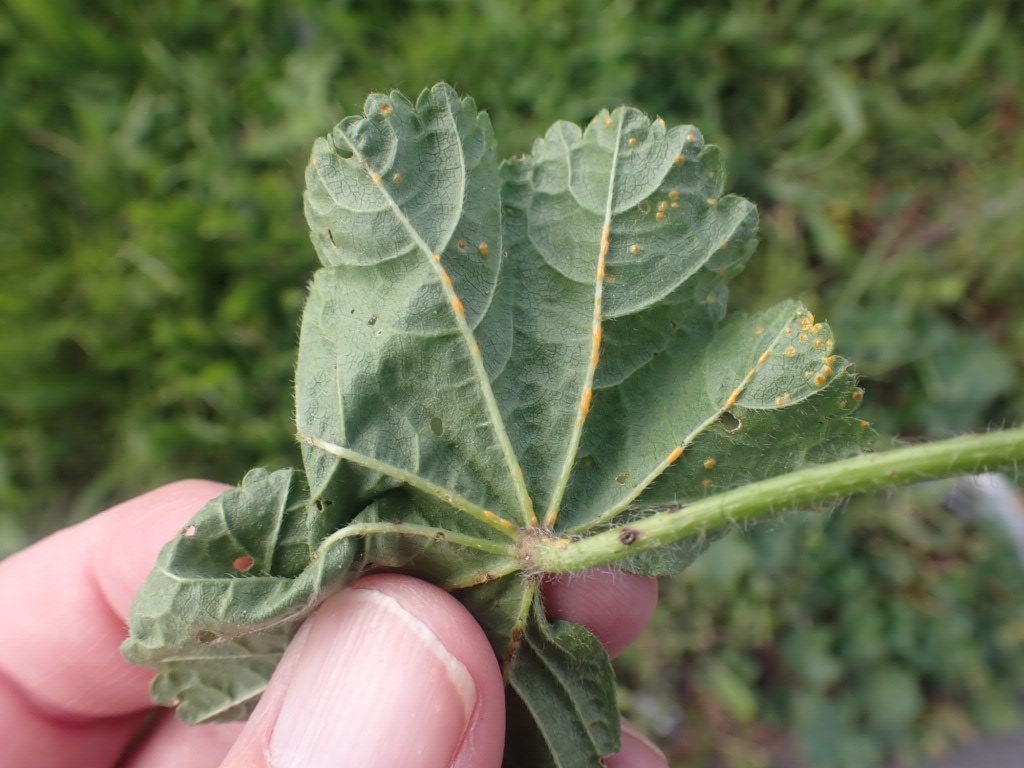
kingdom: Fungi
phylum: Basidiomycota
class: Pucciniomycetes
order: Pucciniales
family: Pucciniaceae
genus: Puccinia
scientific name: Puccinia malvacearum
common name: Hollyhock rust
